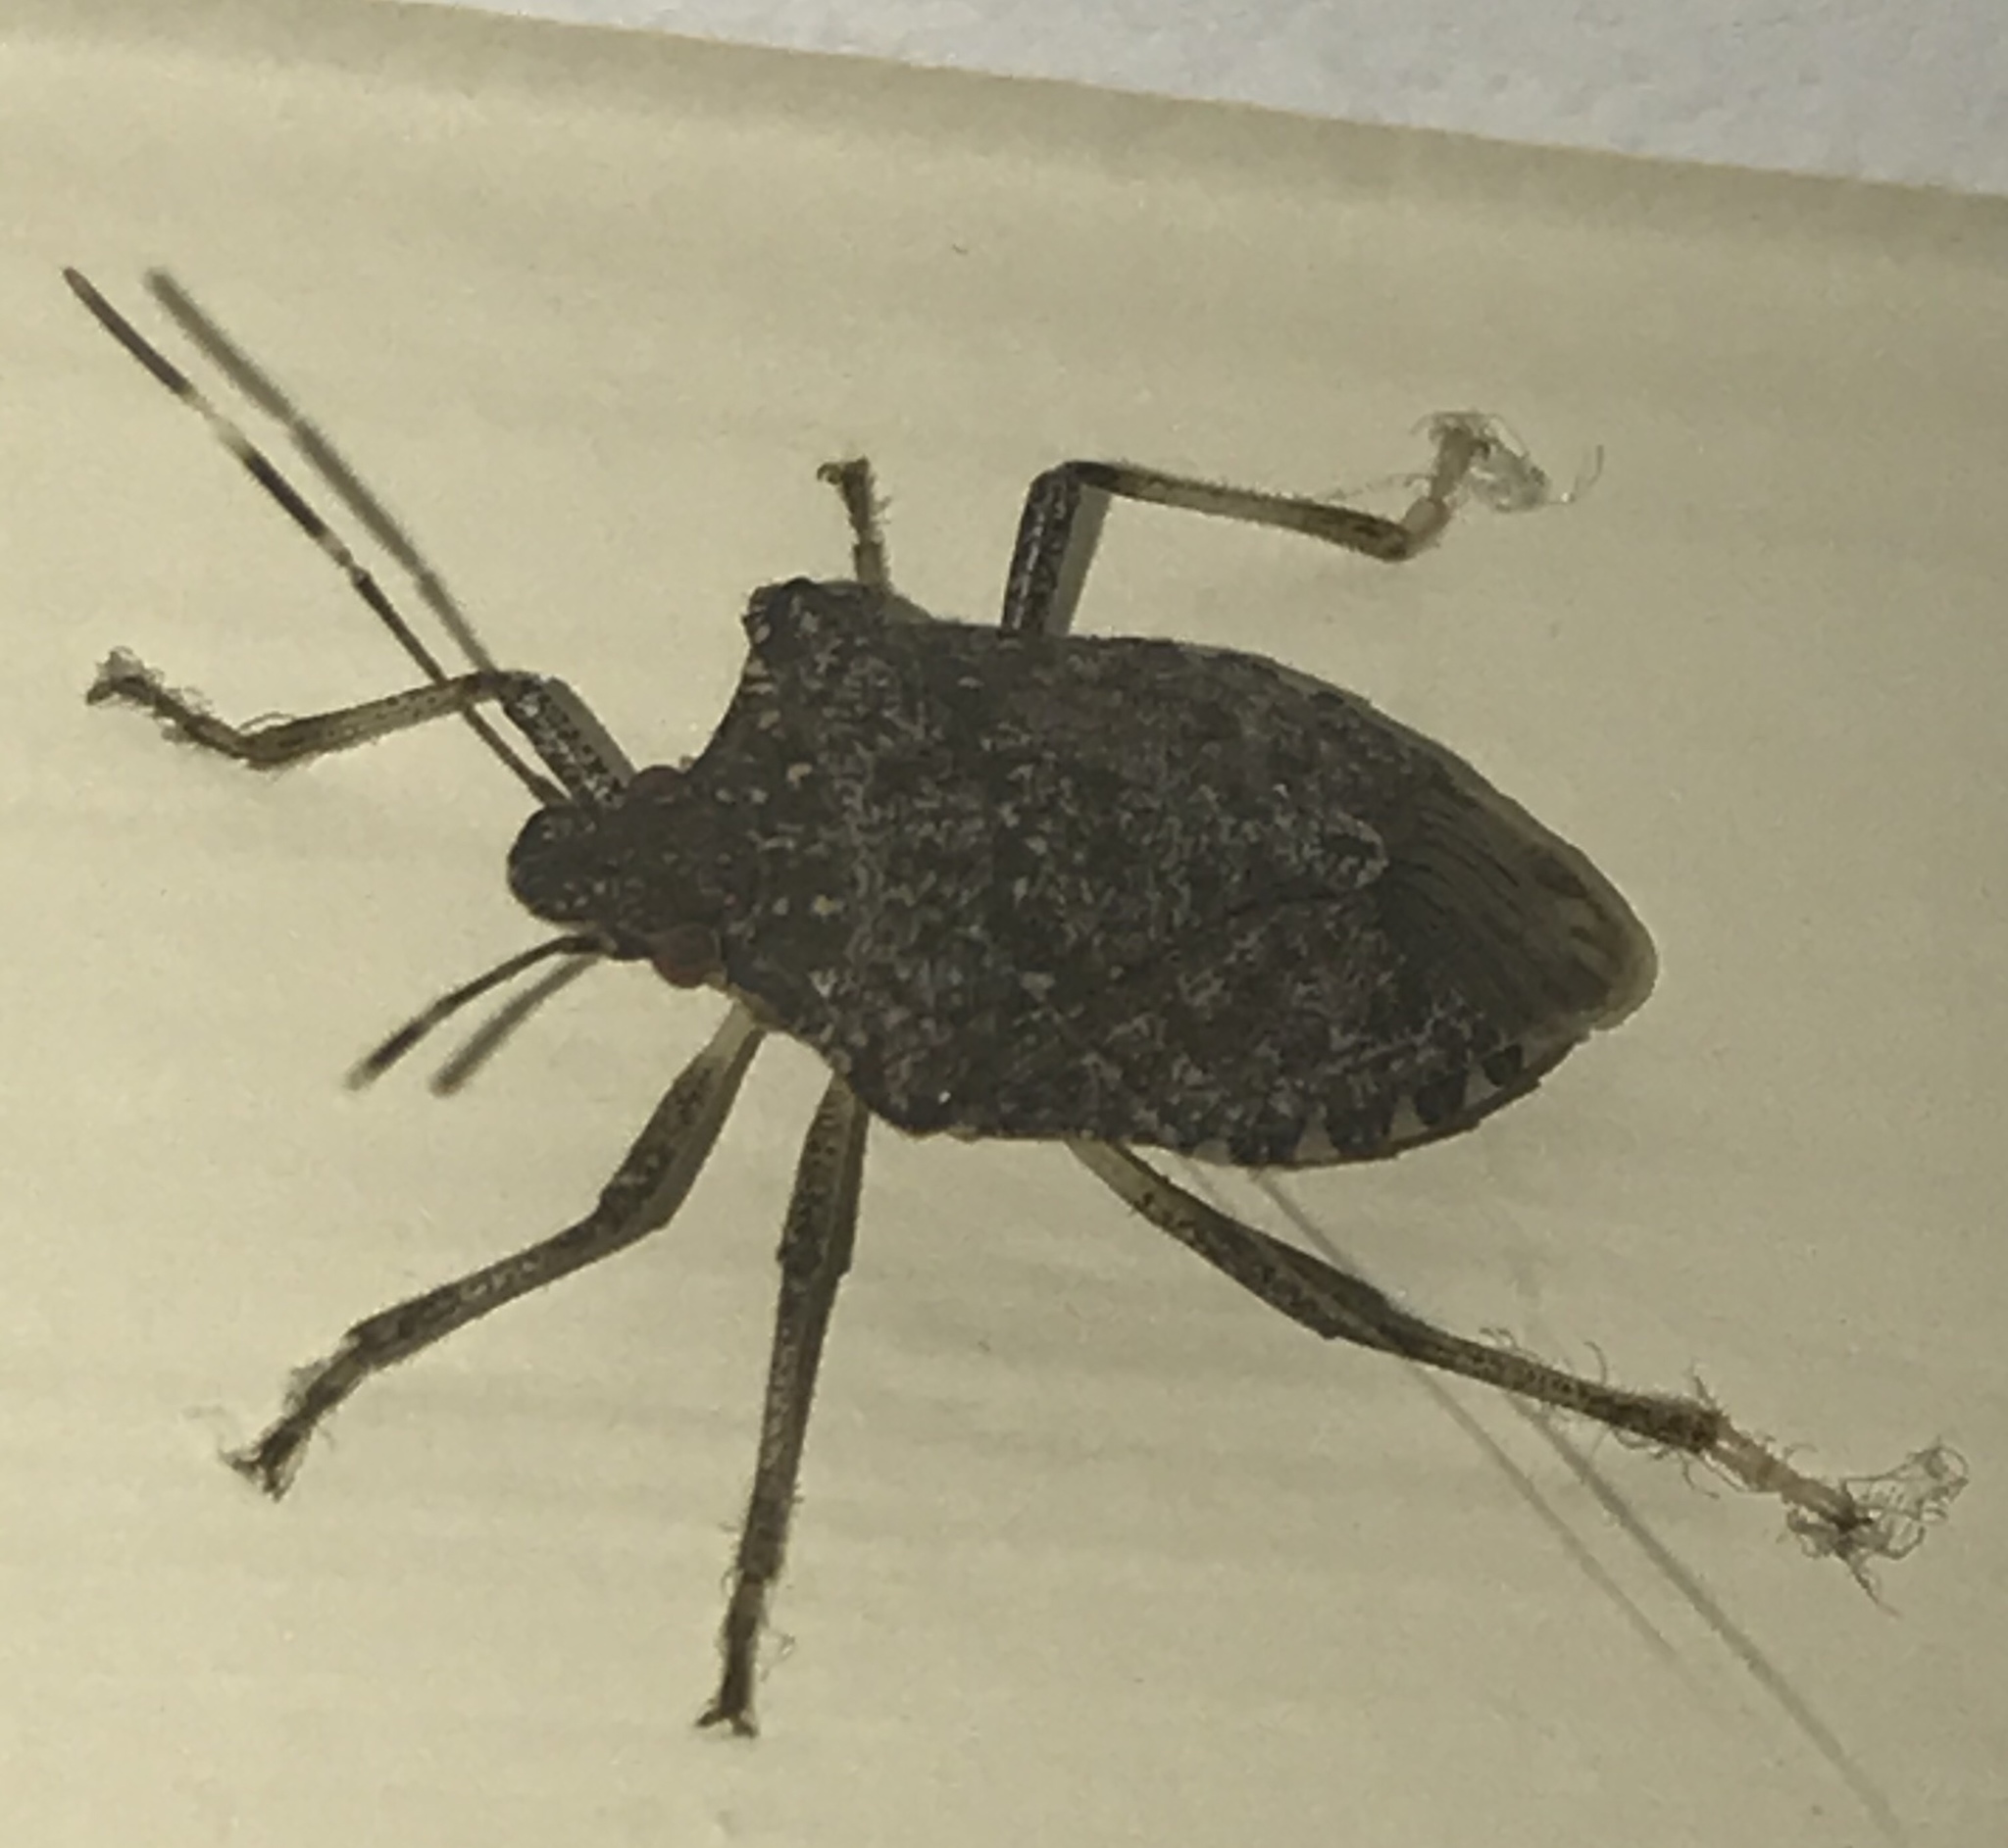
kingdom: Animalia
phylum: Arthropoda
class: Insecta
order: Hemiptera
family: Pentatomidae
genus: Halyomorpha
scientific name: Halyomorpha halys
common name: Brown marmorated stink bug
